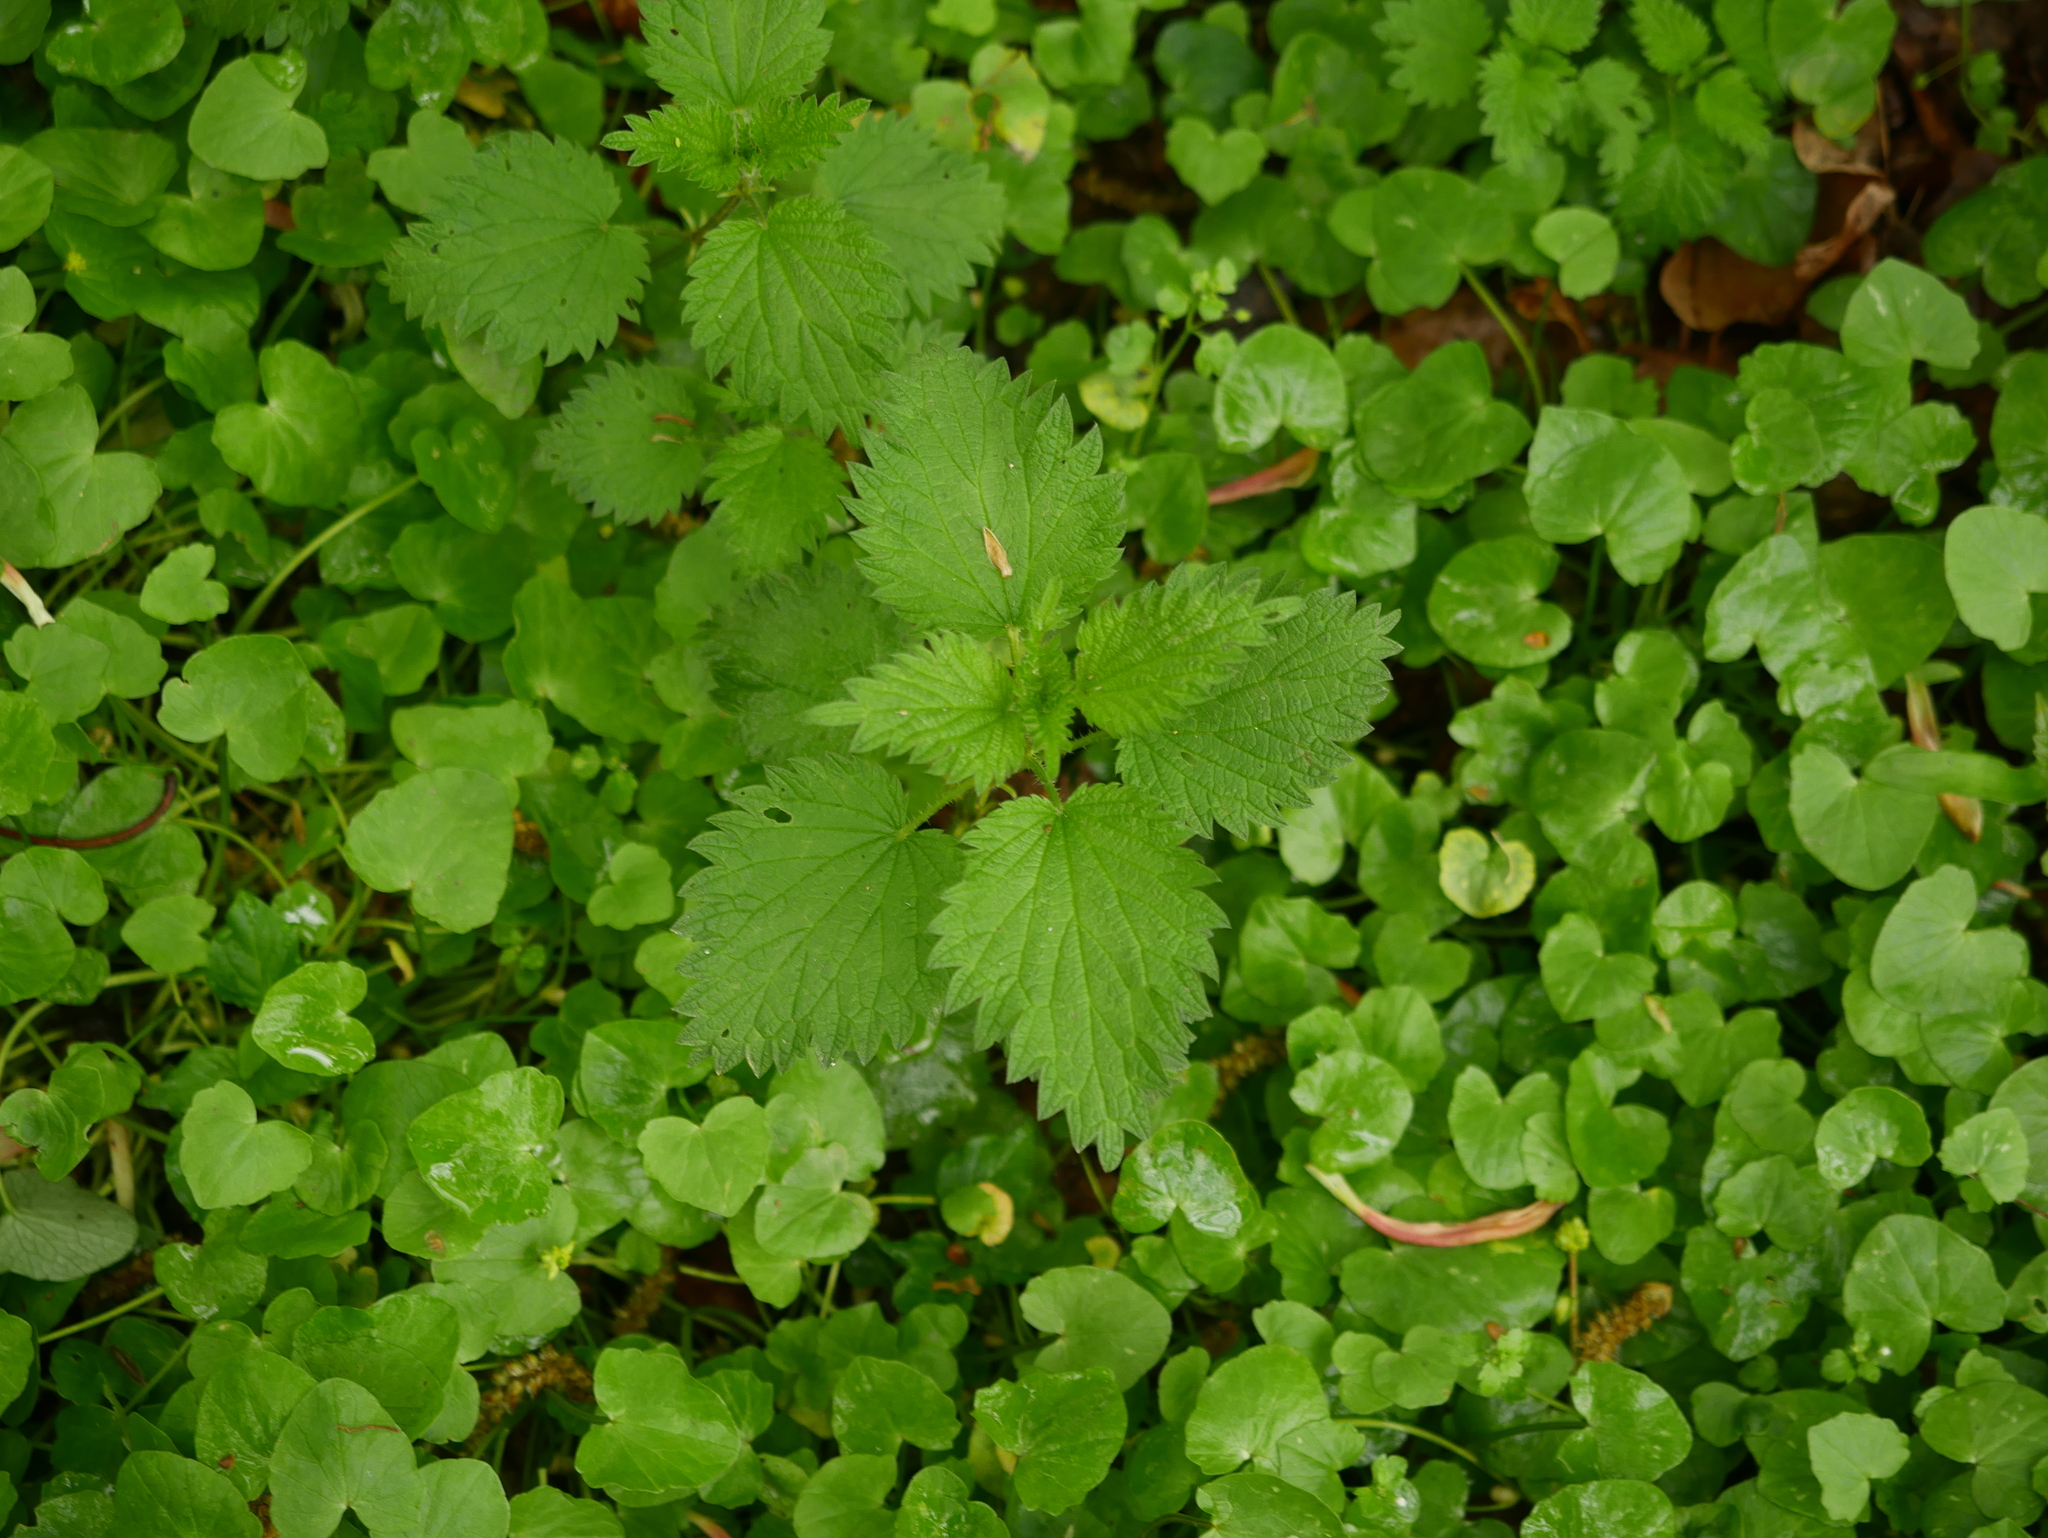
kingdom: Plantae
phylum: Tracheophyta
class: Magnoliopsida
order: Rosales
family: Urticaceae
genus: Urtica
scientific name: Urtica dioica
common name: Common nettle
